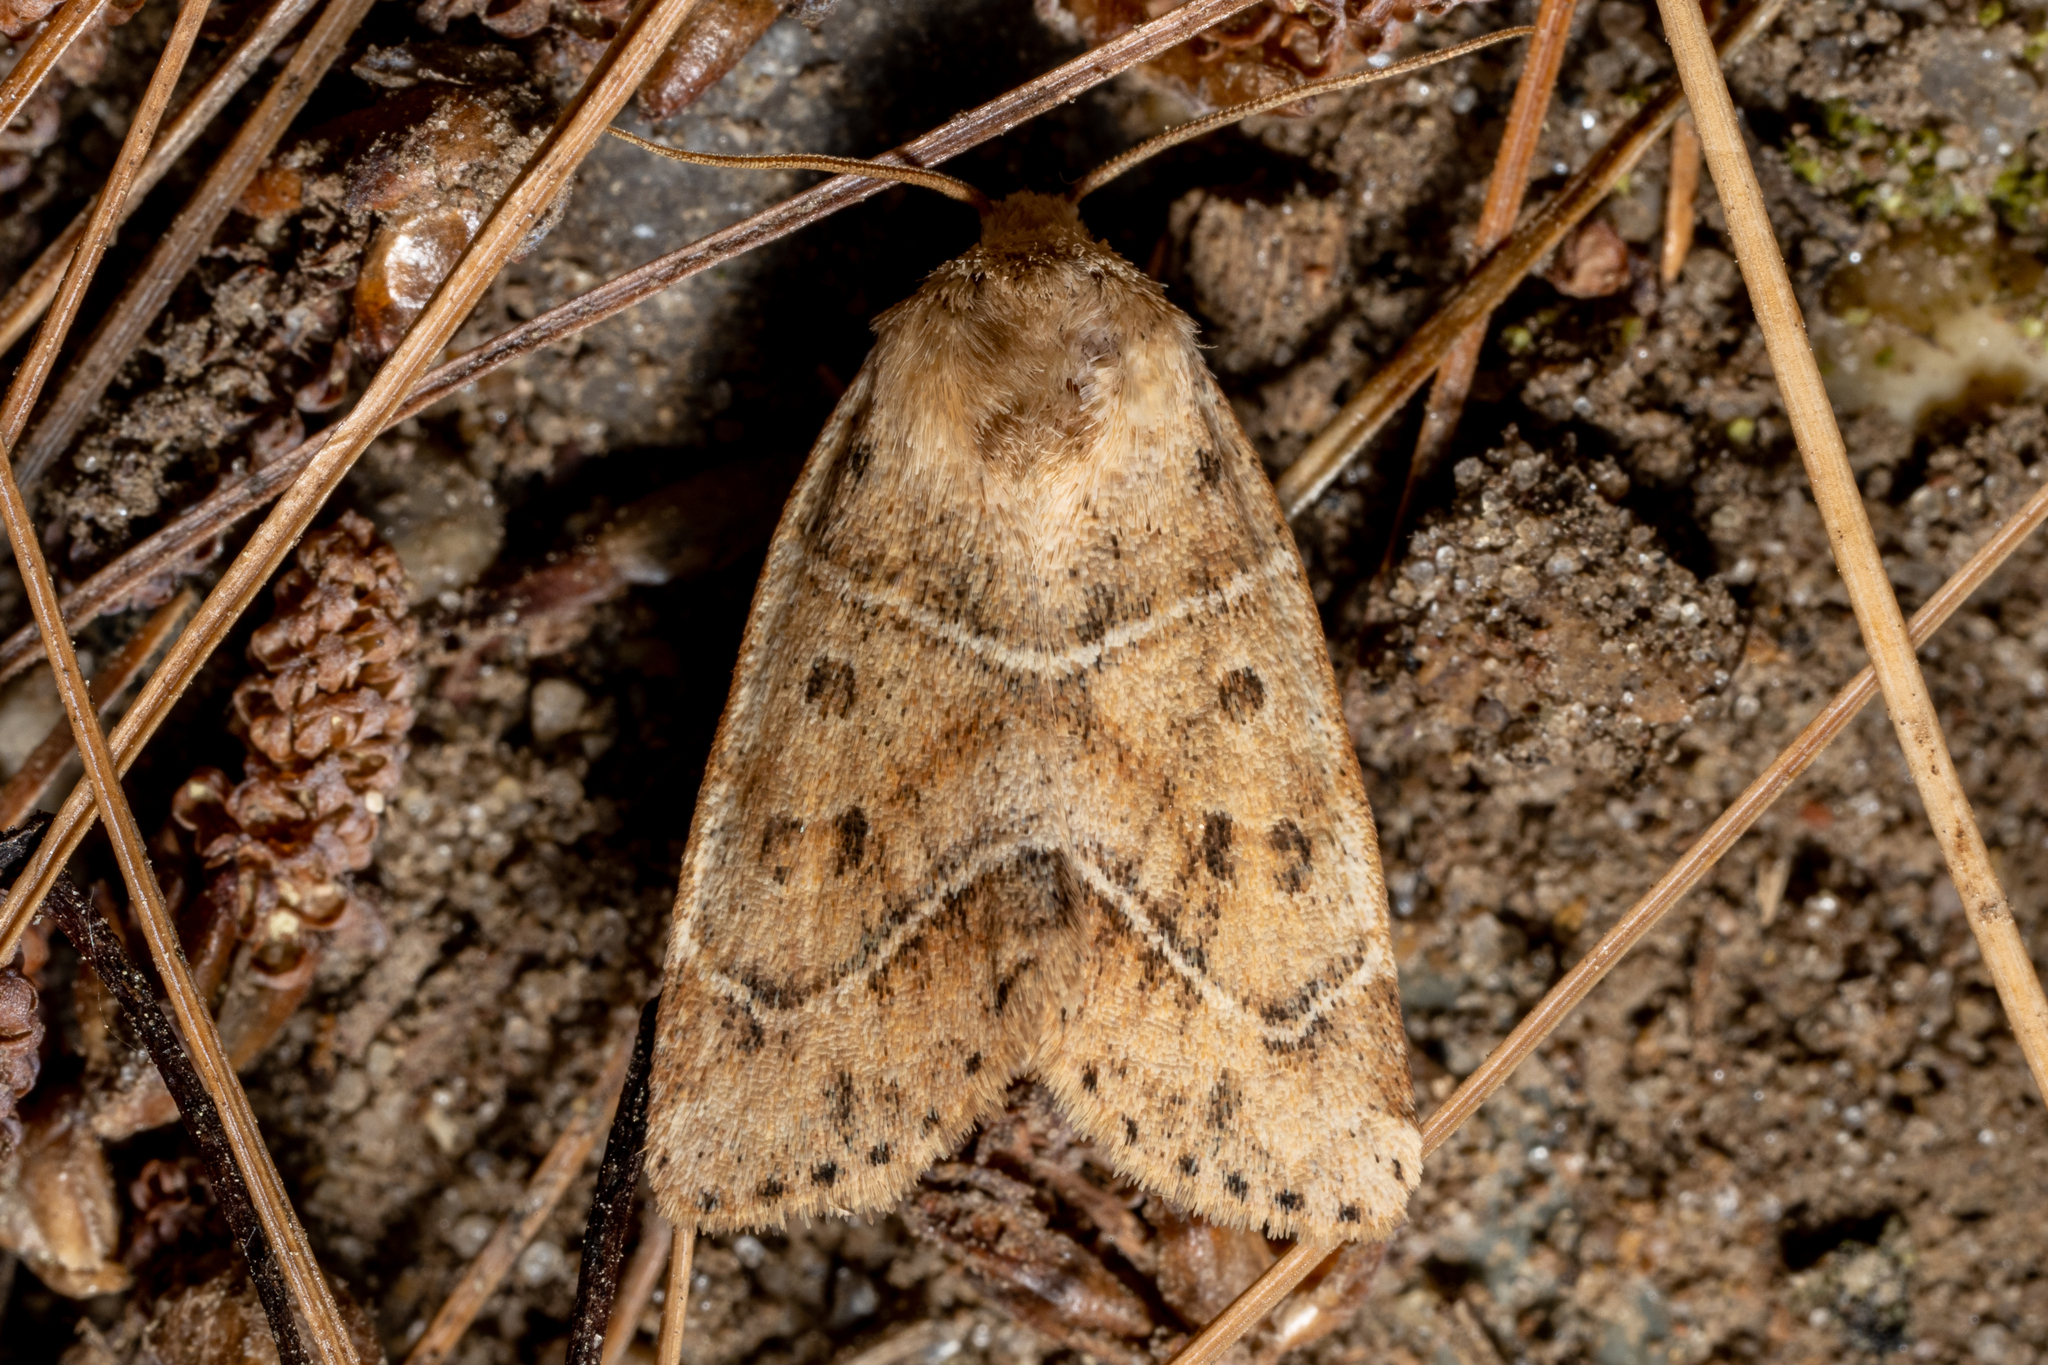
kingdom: Animalia
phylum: Arthropoda
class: Insecta
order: Lepidoptera
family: Noctuidae
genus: Cosmia
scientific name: Cosmia calami
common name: American dun-bar moth
